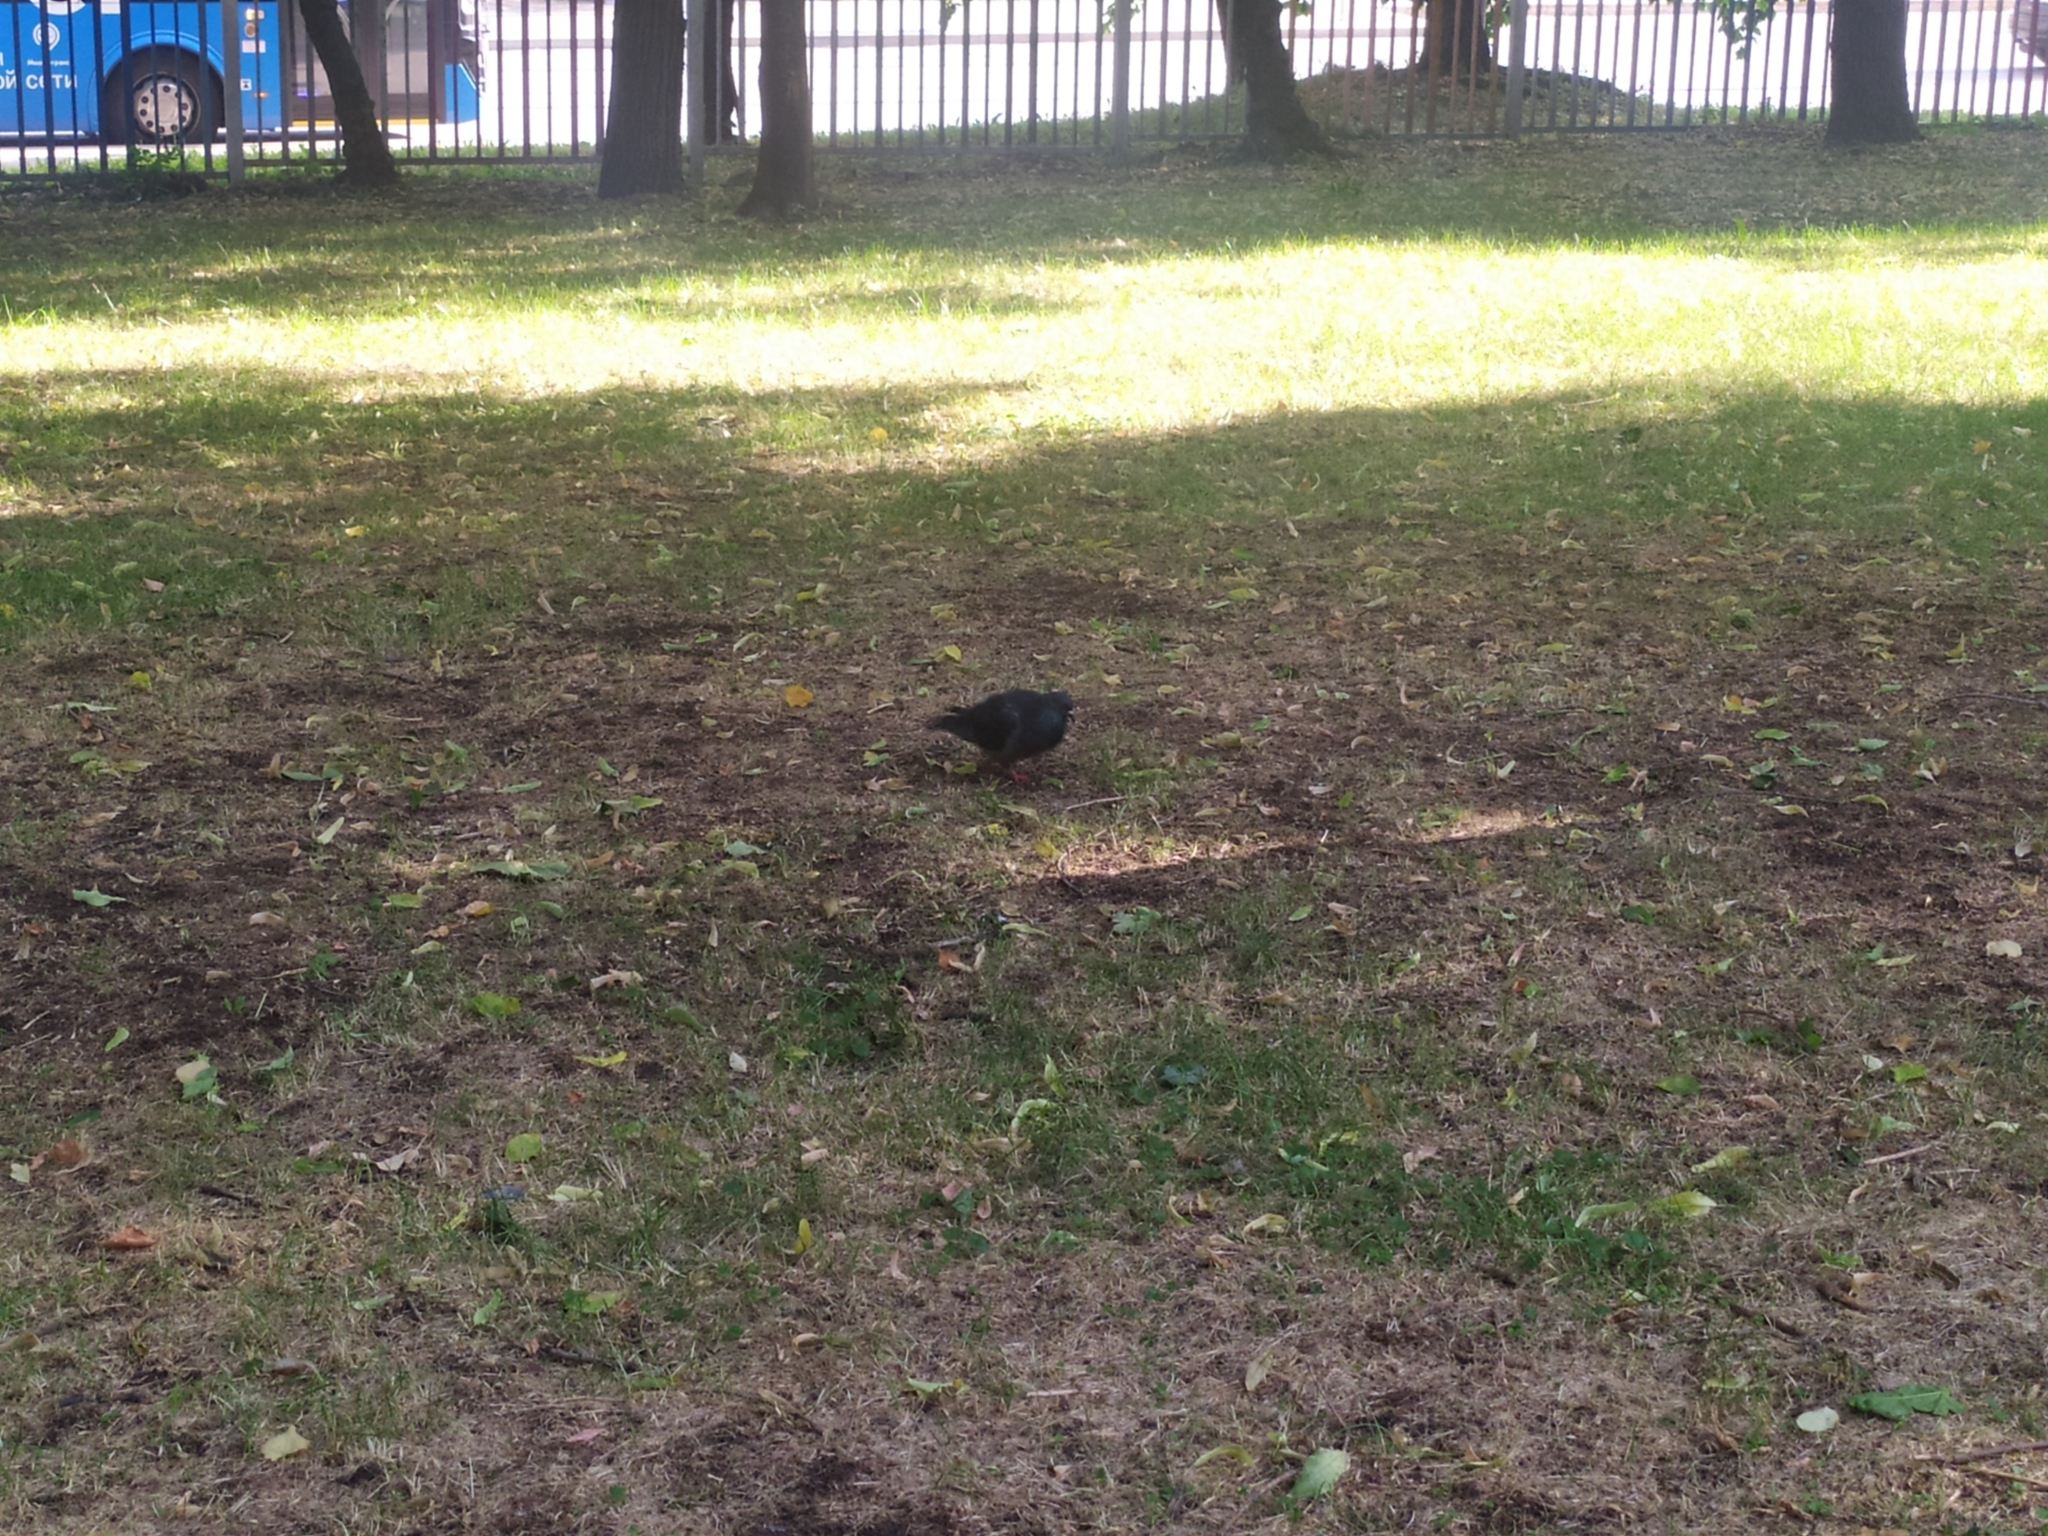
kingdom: Animalia
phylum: Chordata
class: Aves
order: Columbiformes
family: Columbidae
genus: Columba
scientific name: Columba livia
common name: Rock pigeon
